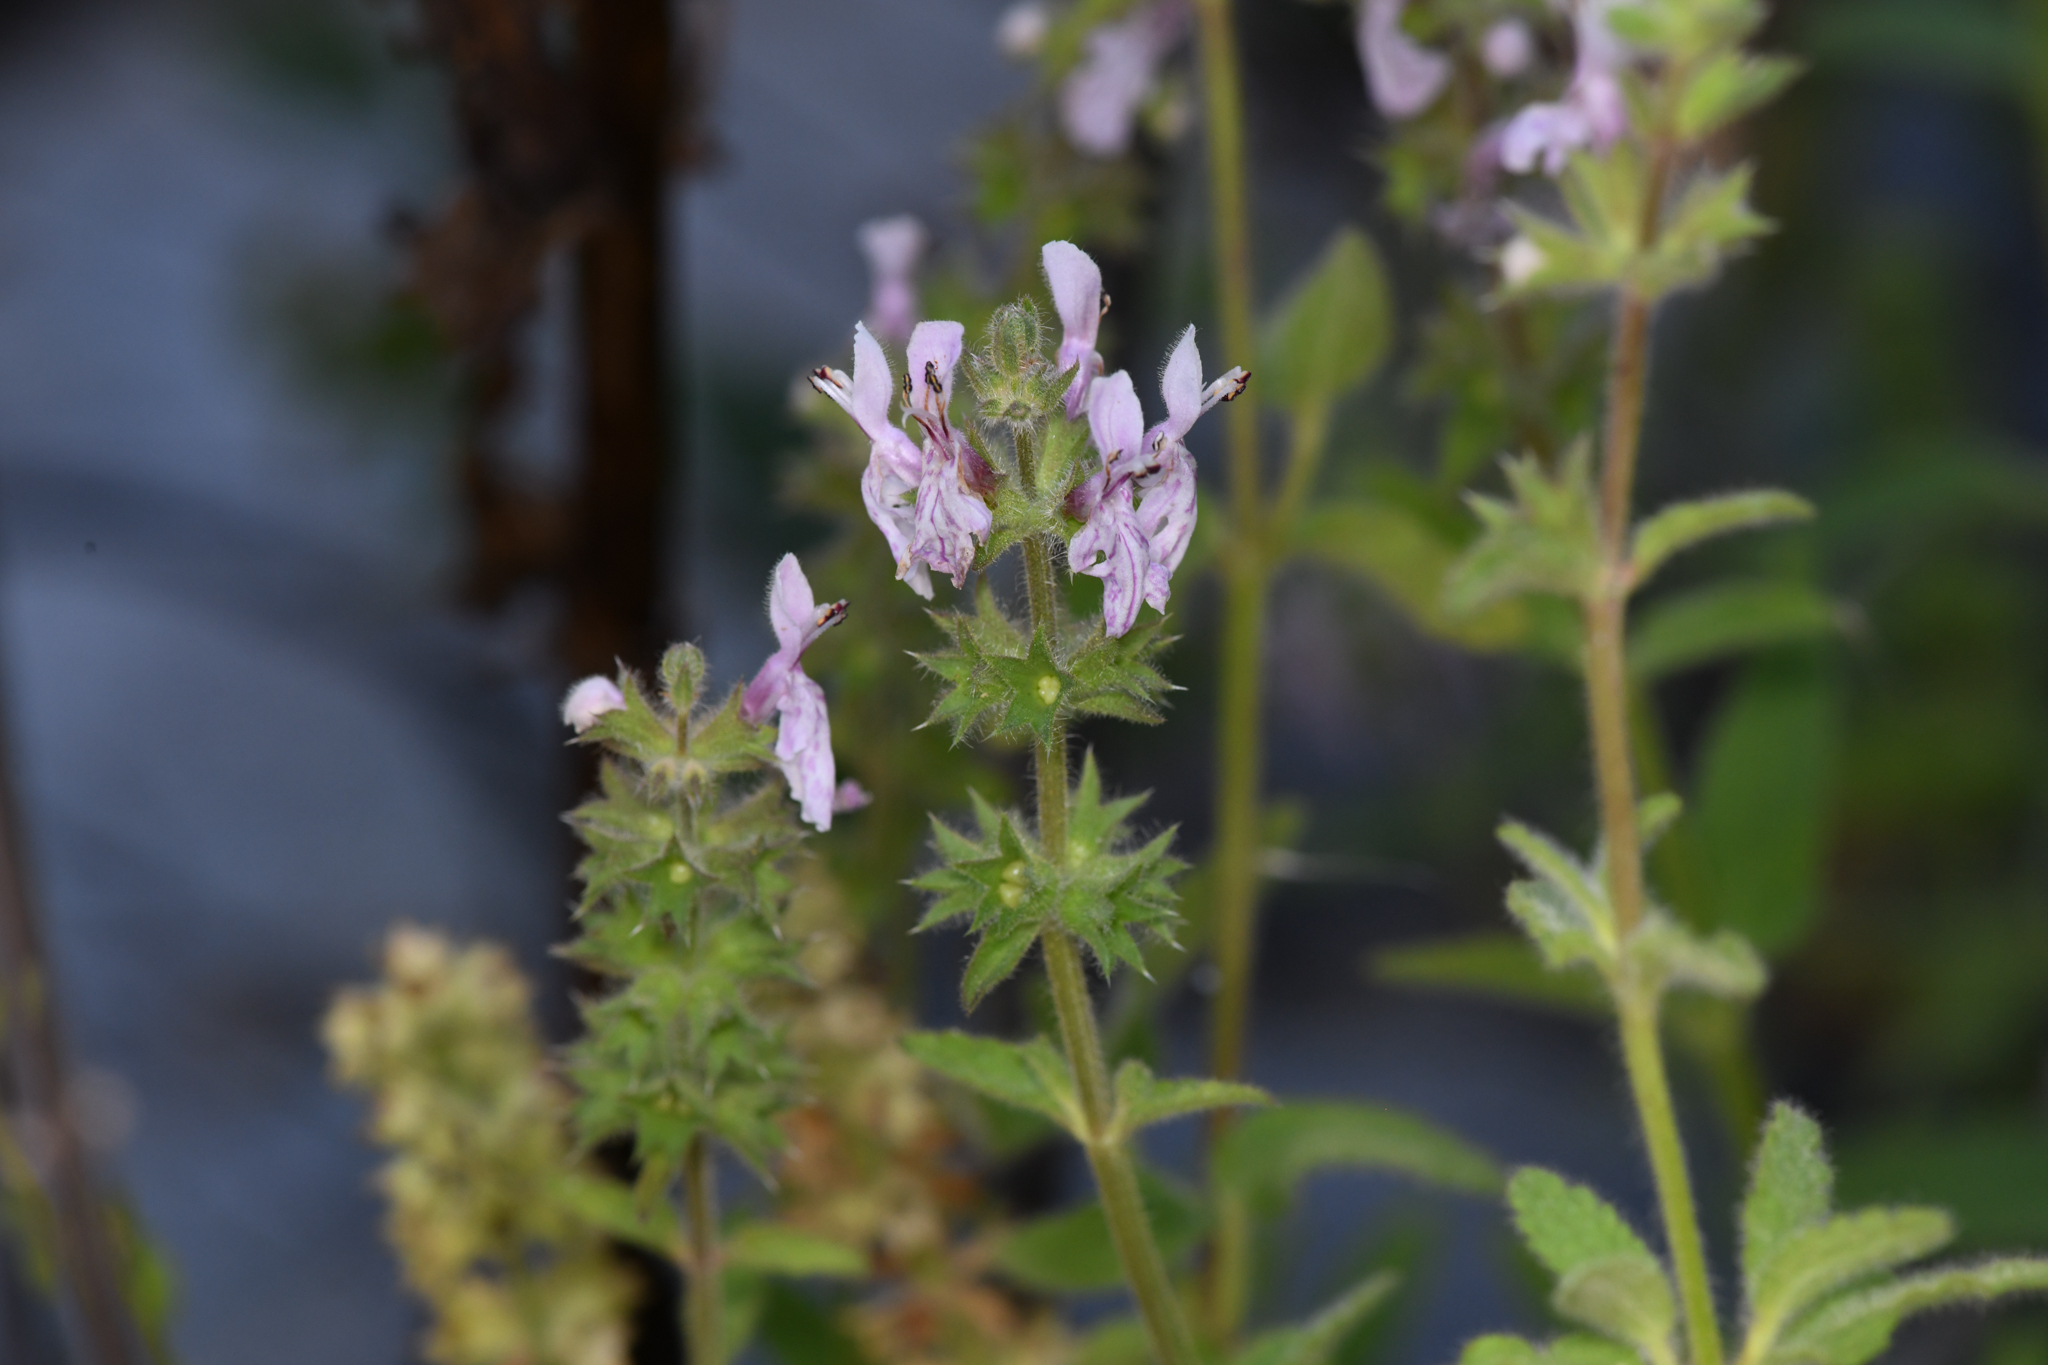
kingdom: Plantae
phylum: Tracheophyta
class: Magnoliopsida
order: Lamiales
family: Lamiaceae
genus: Stachys
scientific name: Stachys stebbinsii
